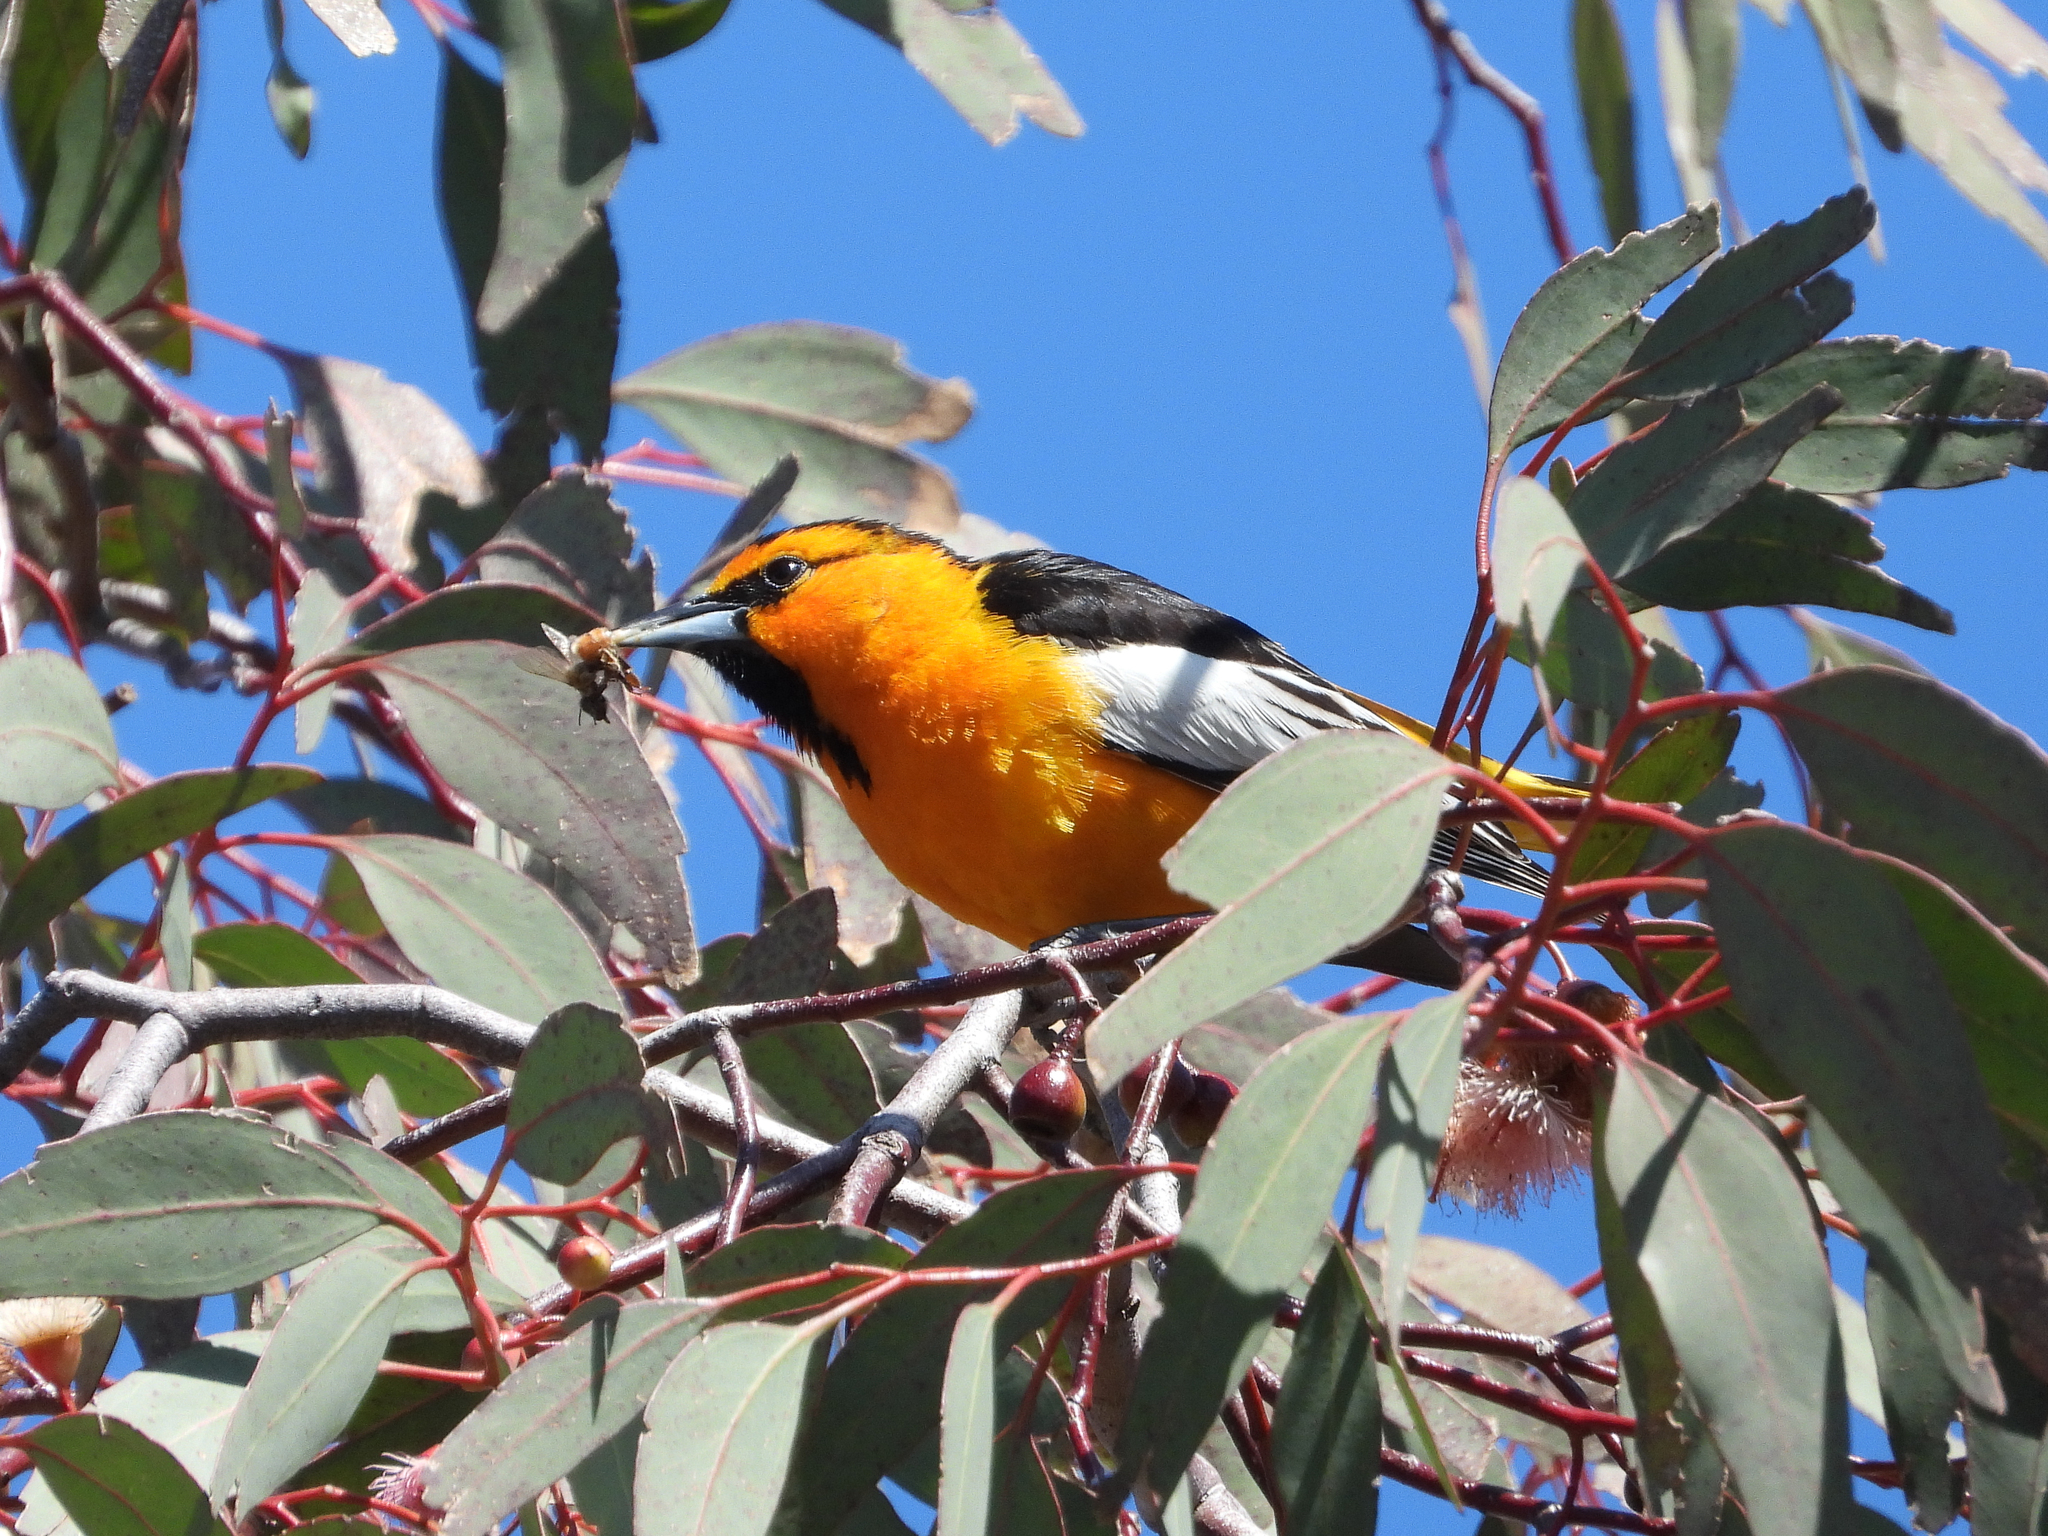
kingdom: Animalia
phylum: Chordata
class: Aves
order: Passeriformes
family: Icteridae
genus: Icterus
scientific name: Icterus bullockii
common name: Bullock's oriole
